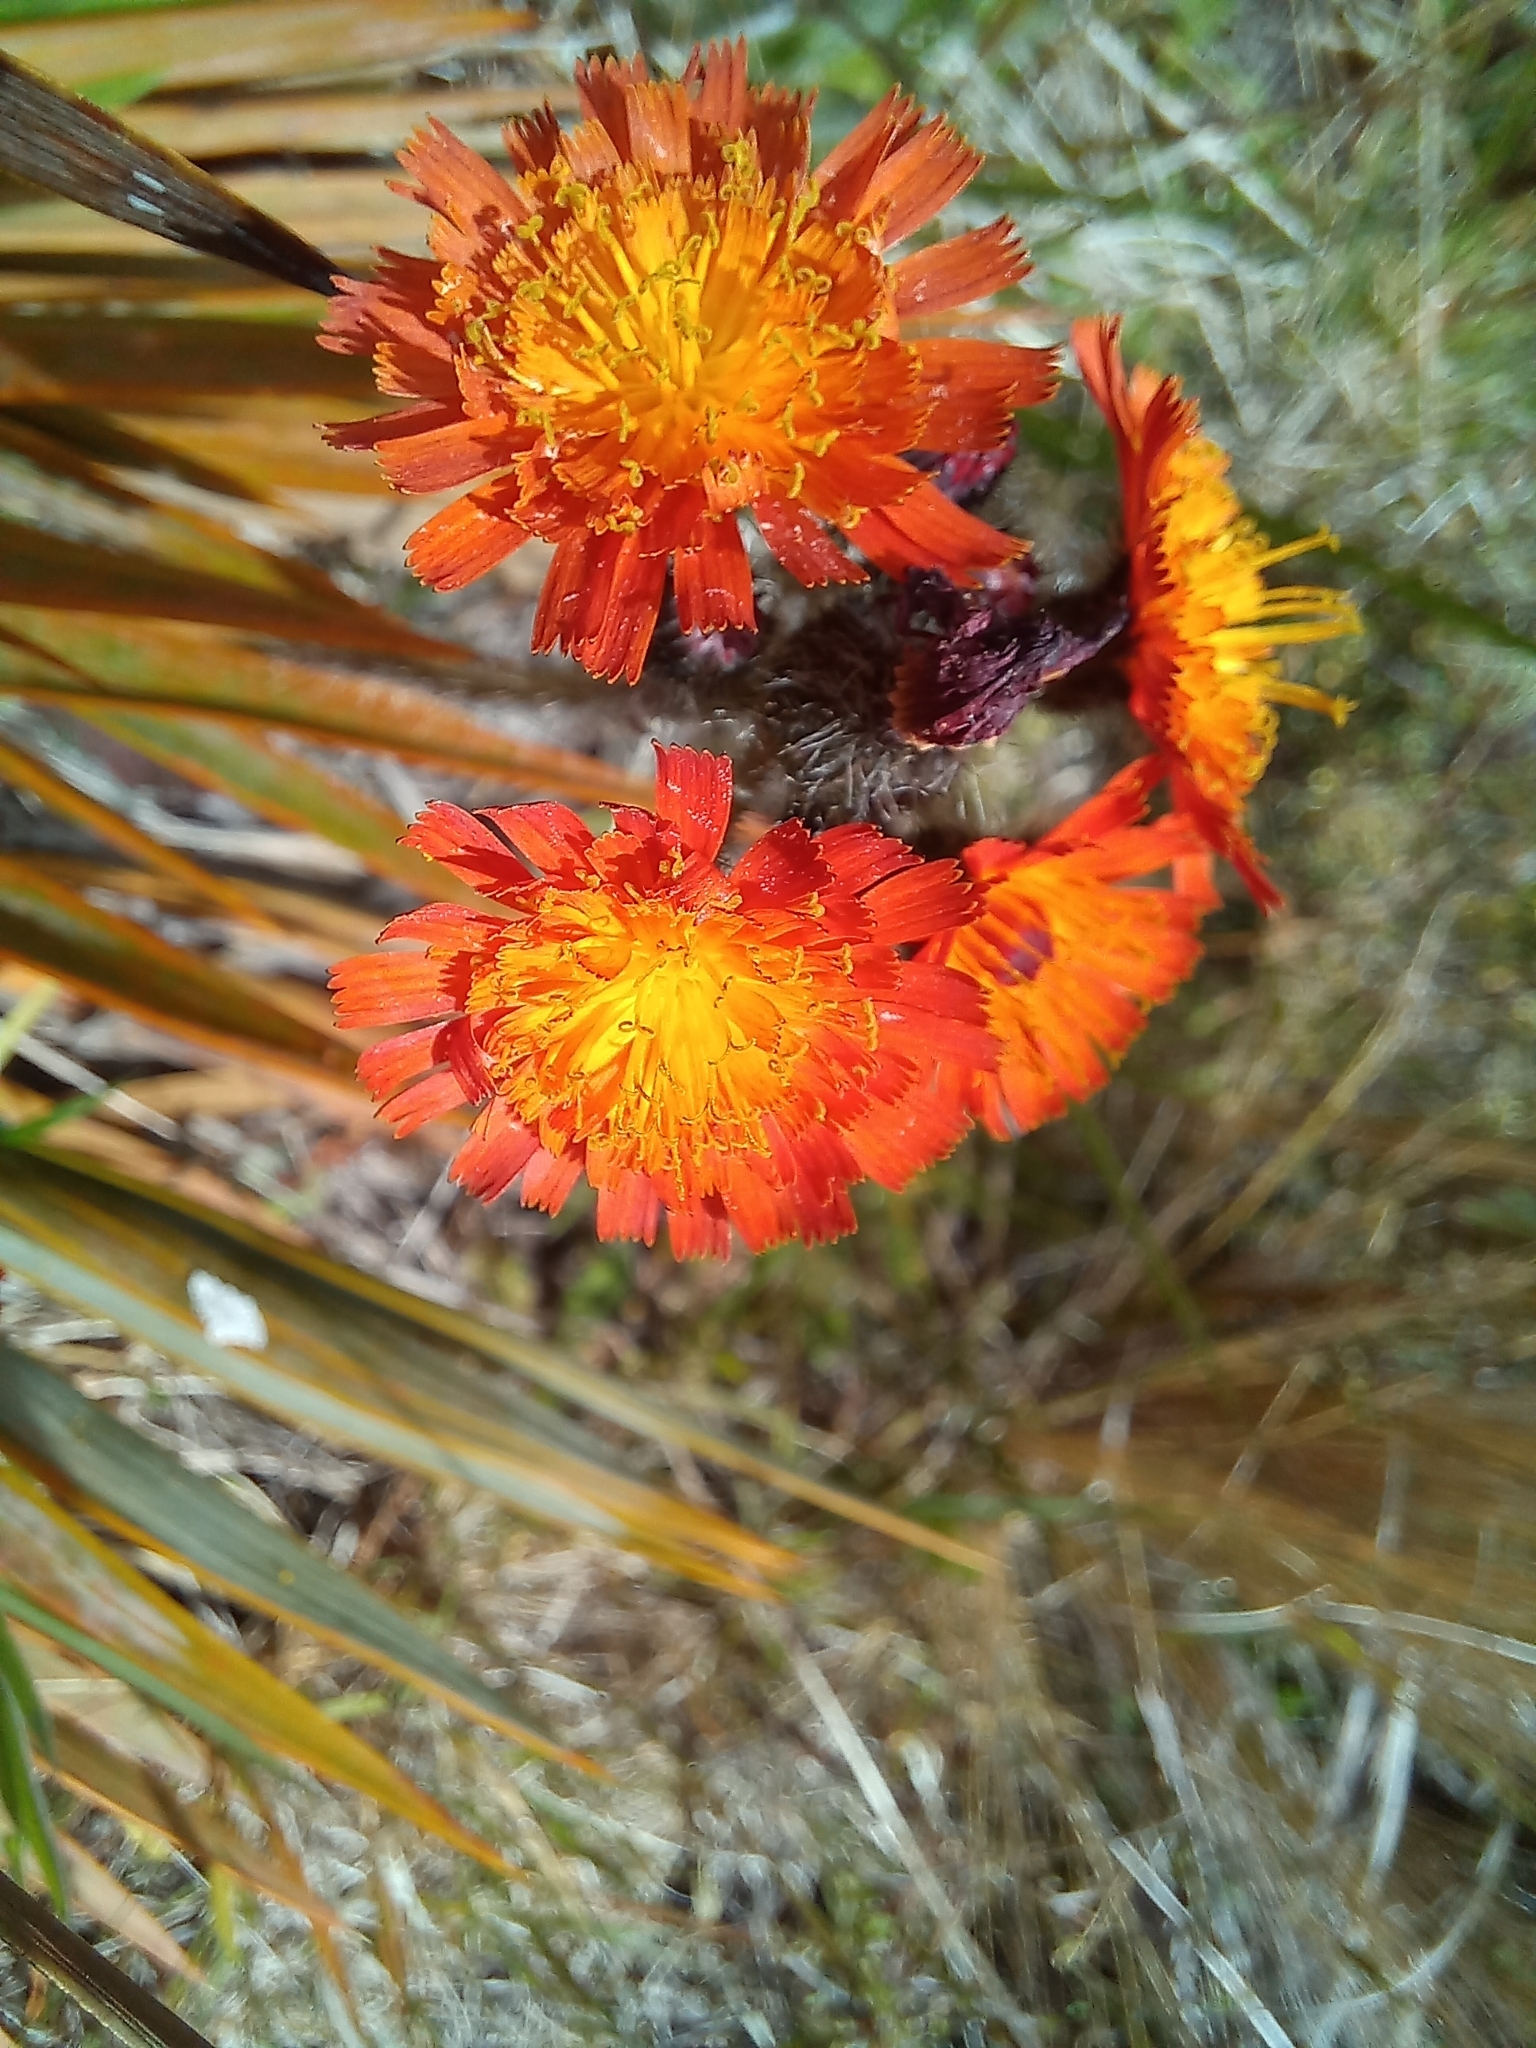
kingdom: Plantae
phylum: Tracheophyta
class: Magnoliopsida
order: Asterales
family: Asteraceae
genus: Pilosella
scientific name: Pilosella aurantiaca
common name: Fox-and-cubs
